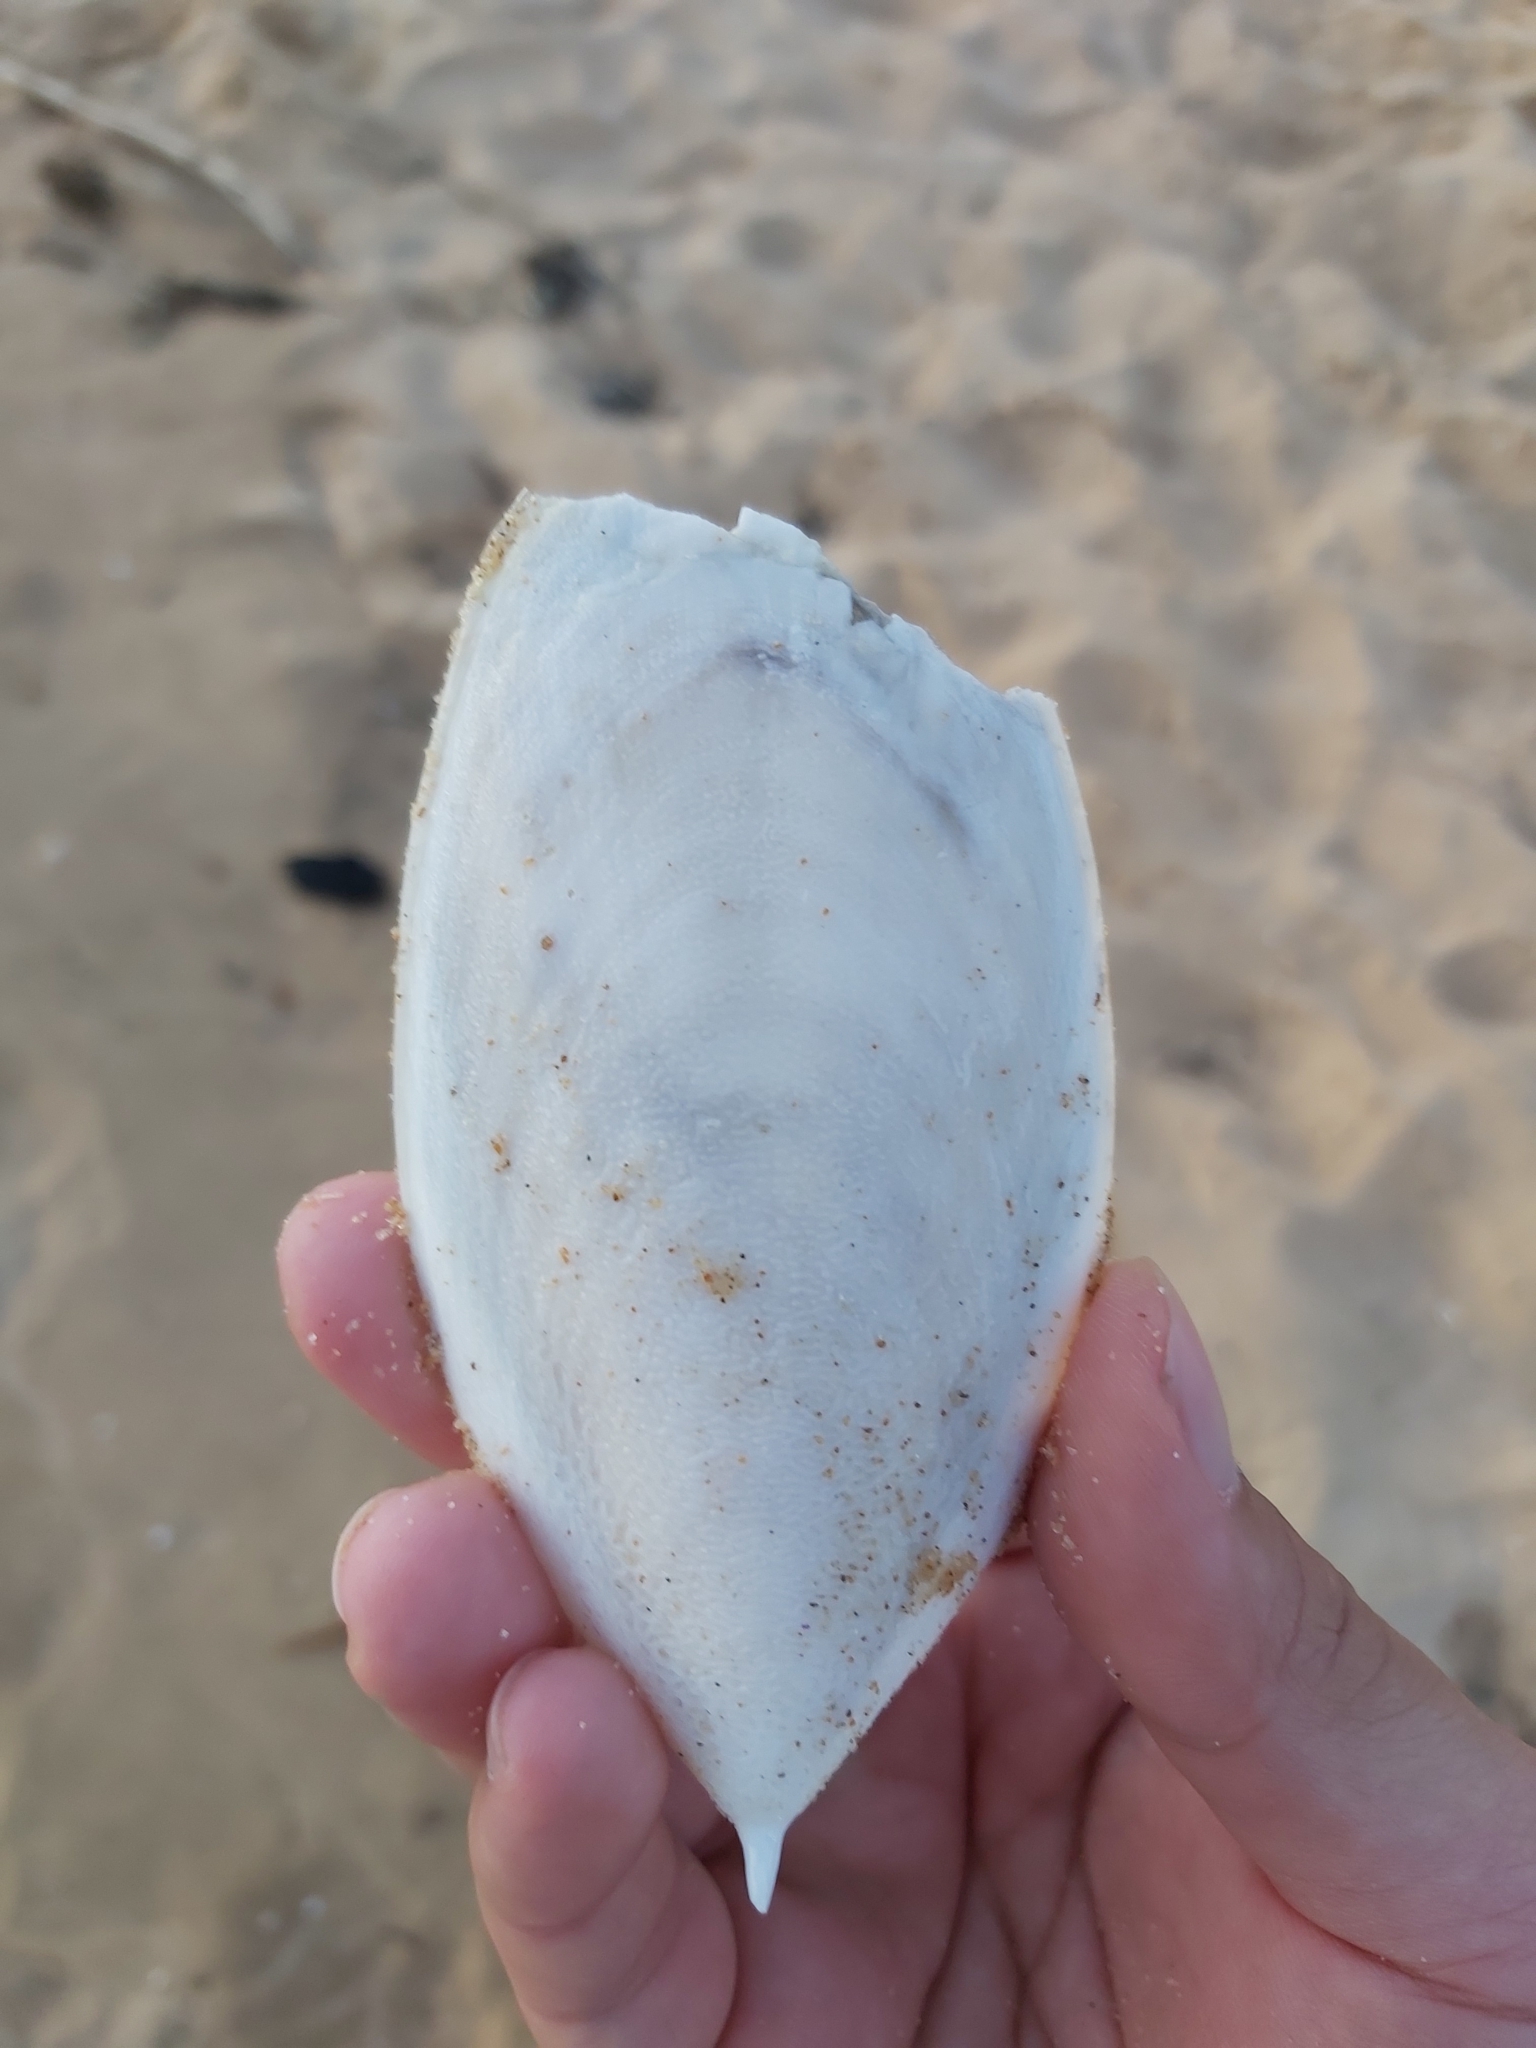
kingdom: Animalia
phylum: Mollusca
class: Cephalopoda
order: Sepiida
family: Sepiidae
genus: Ascarosepion
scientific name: Ascarosepion mestus
